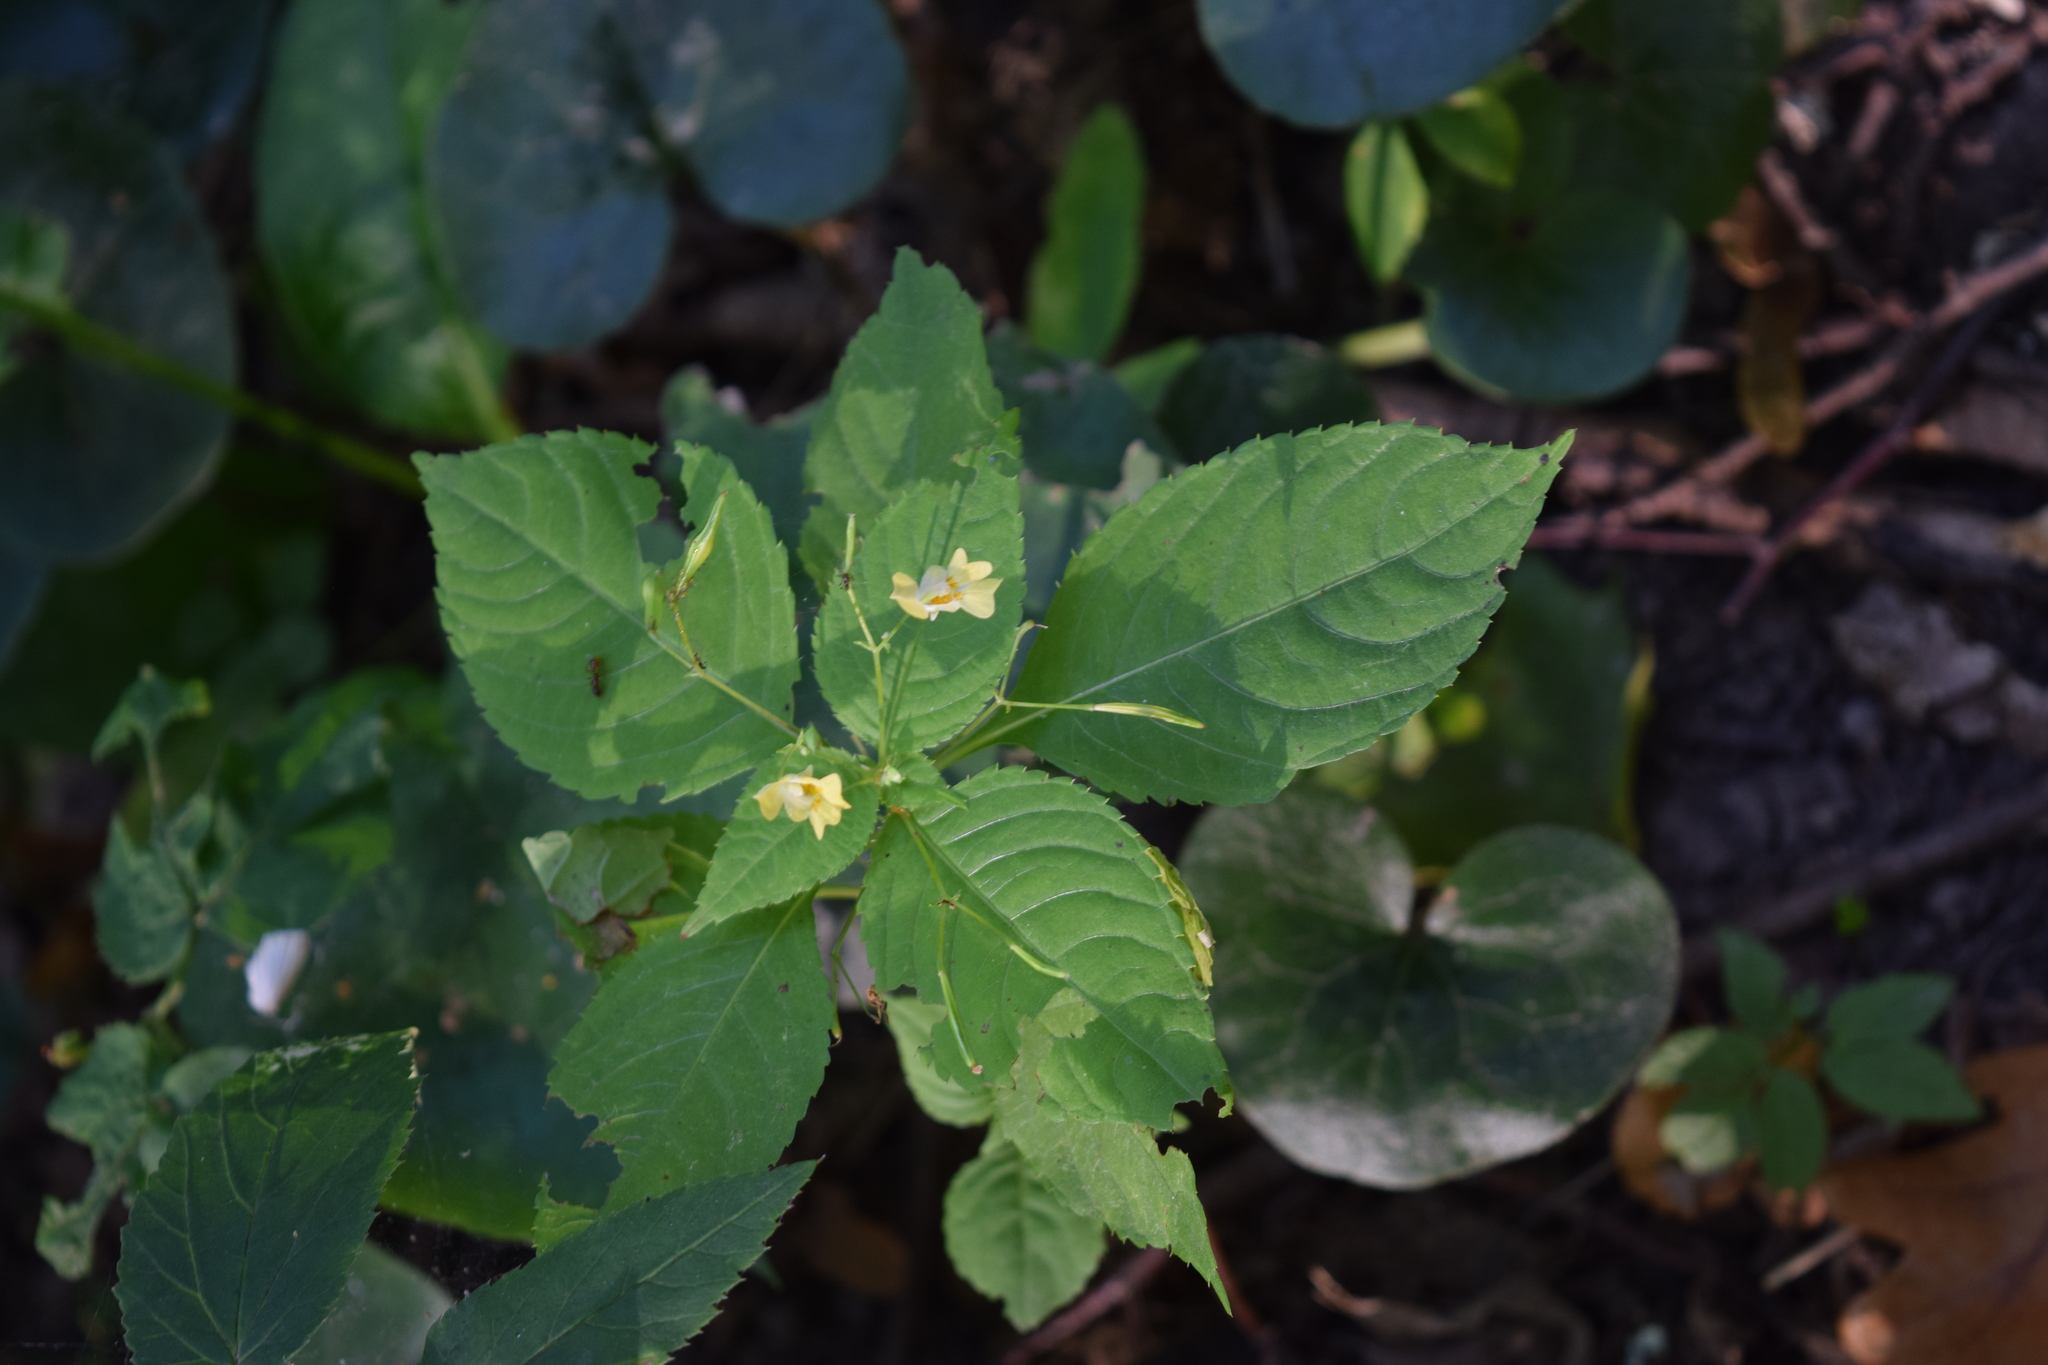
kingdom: Plantae
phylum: Tracheophyta
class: Magnoliopsida
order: Ericales
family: Balsaminaceae
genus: Impatiens
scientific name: Impatiens parviflora
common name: Small balsam
